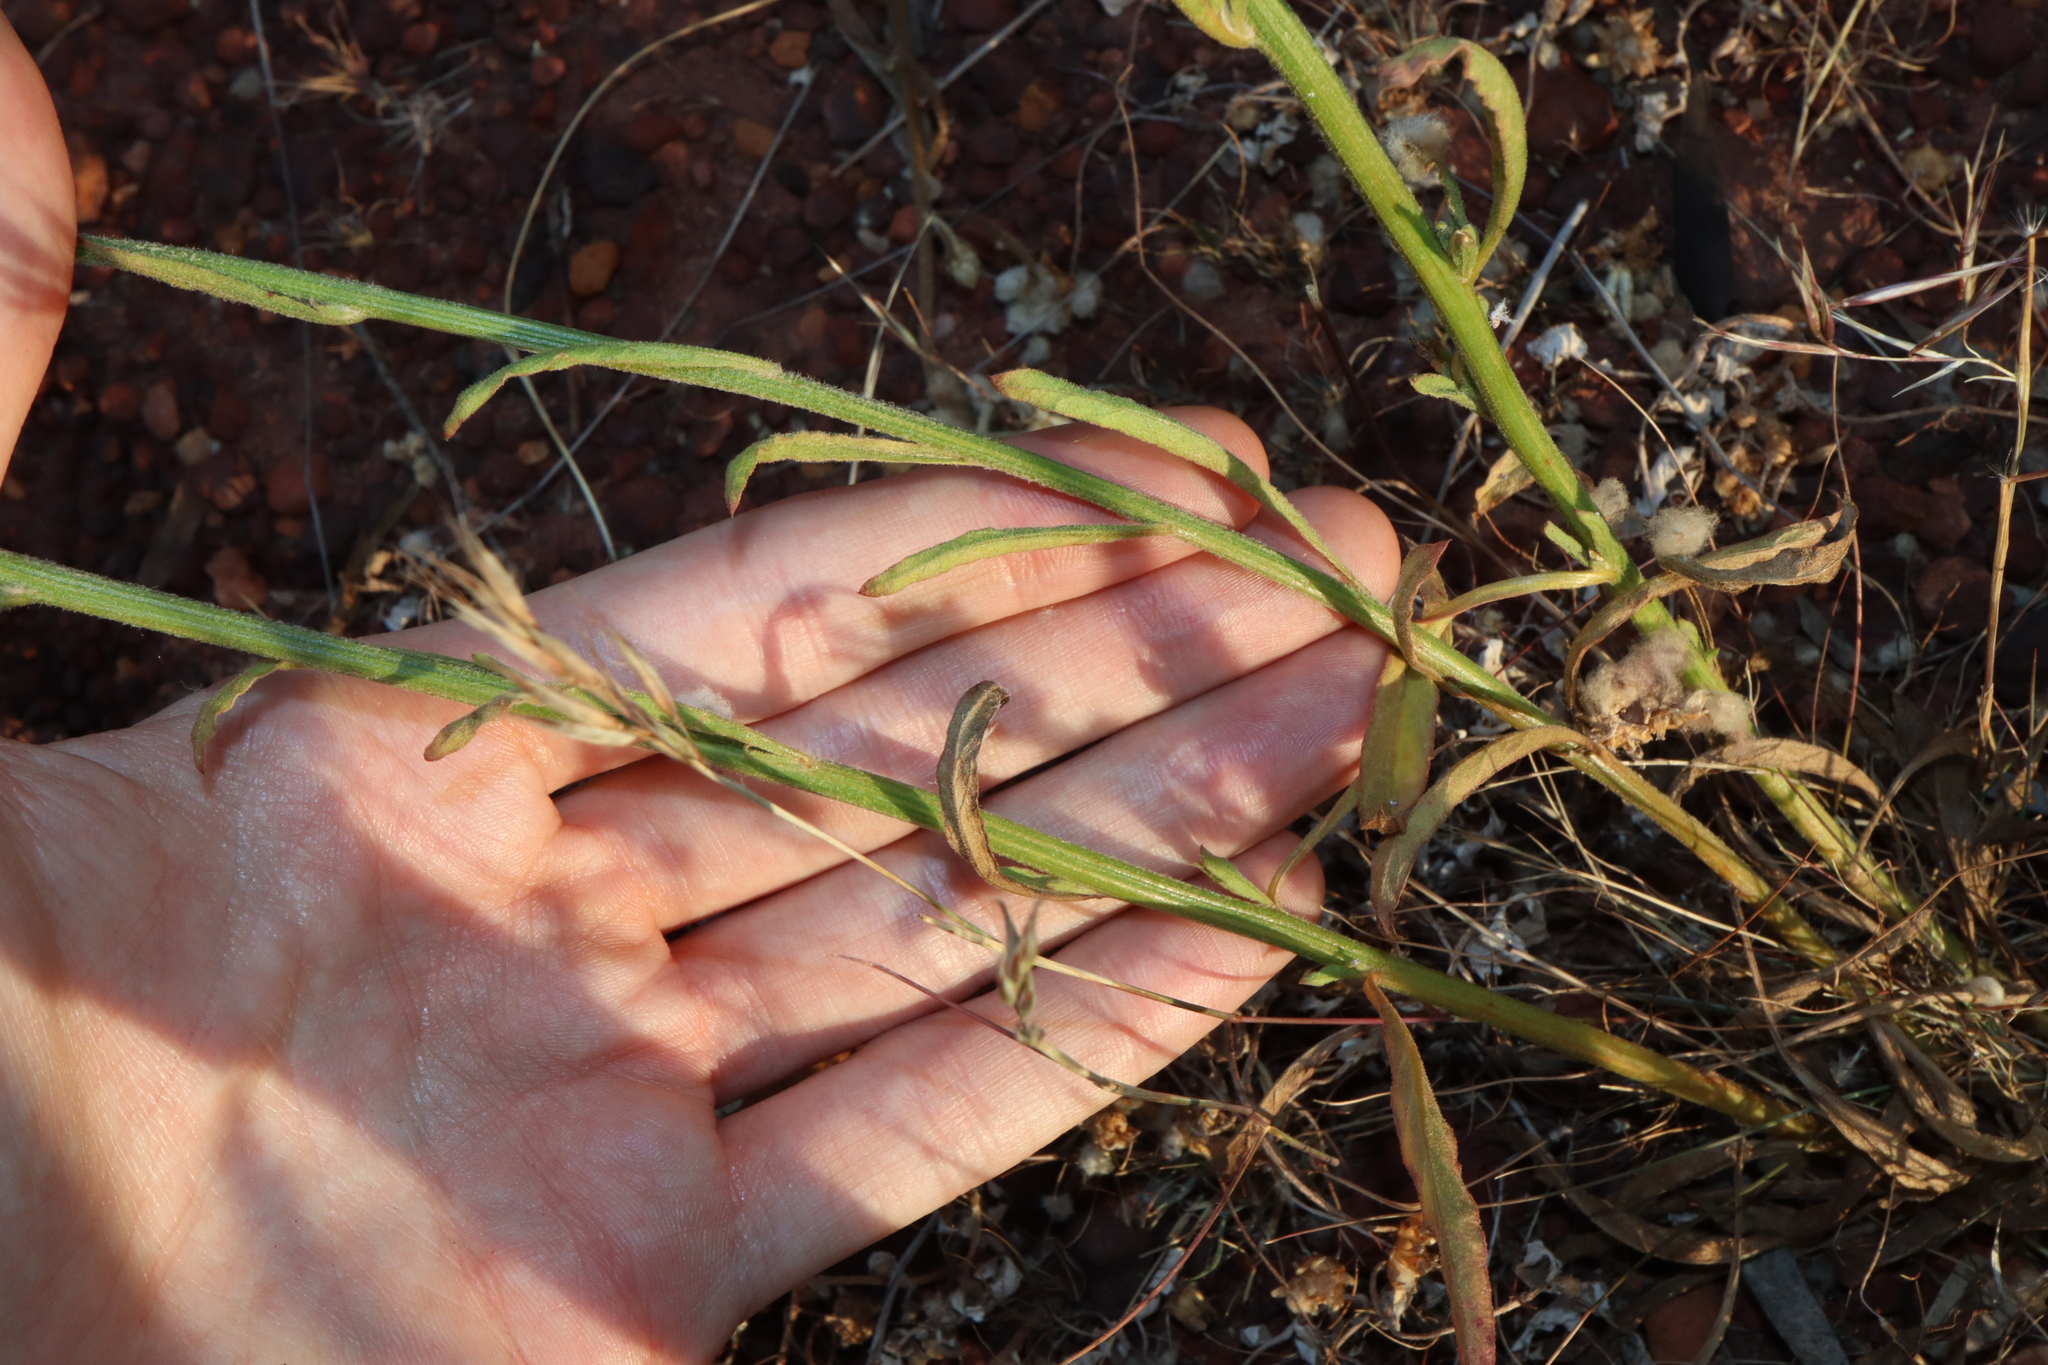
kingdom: Plantae
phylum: Tracheophyta
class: Magnoliopsida
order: Caryophyllales
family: Amaranthaceae
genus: Ptilotus
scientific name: Ptilotus polystachyus
